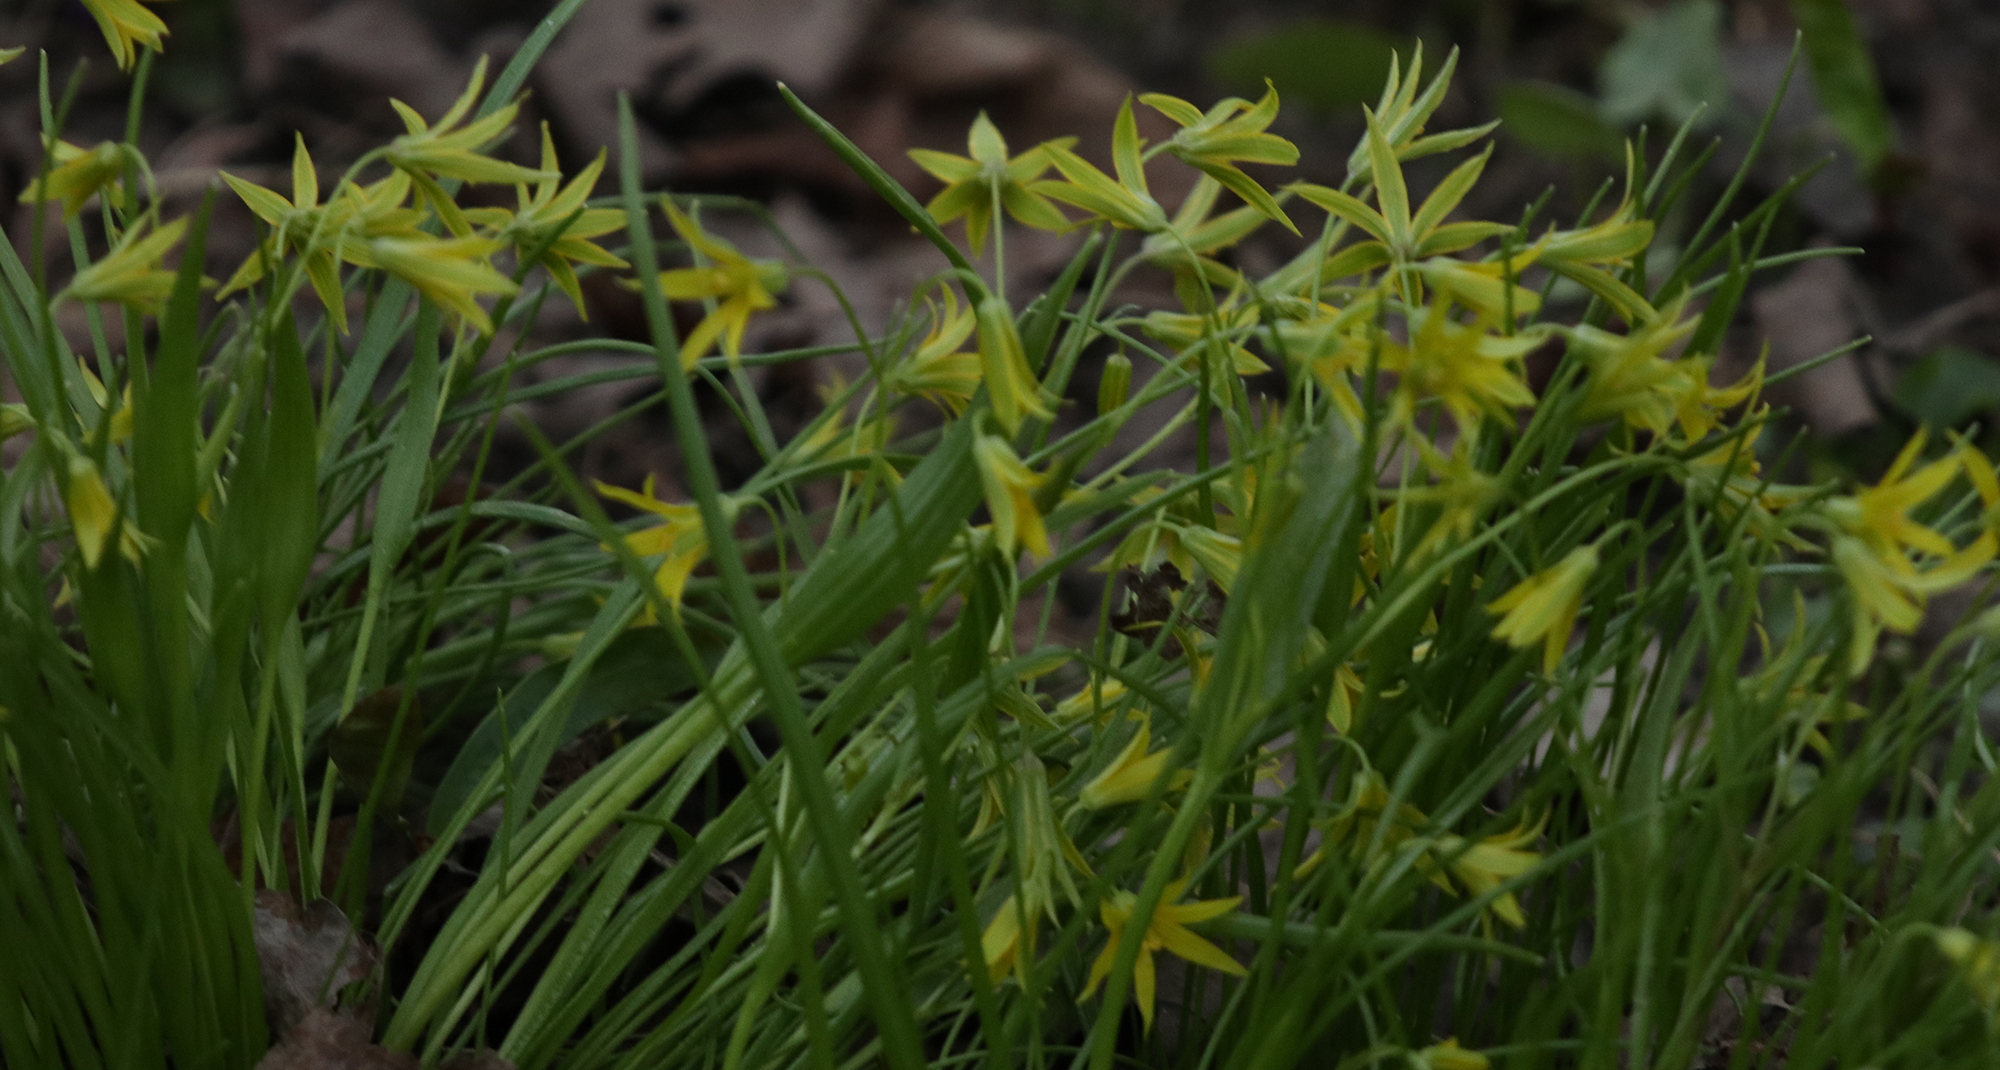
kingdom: Plantae
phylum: Tracheophyta
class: Liliopsida
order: Liliales
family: Liliaceae
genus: Gagea
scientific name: Gagea minima
